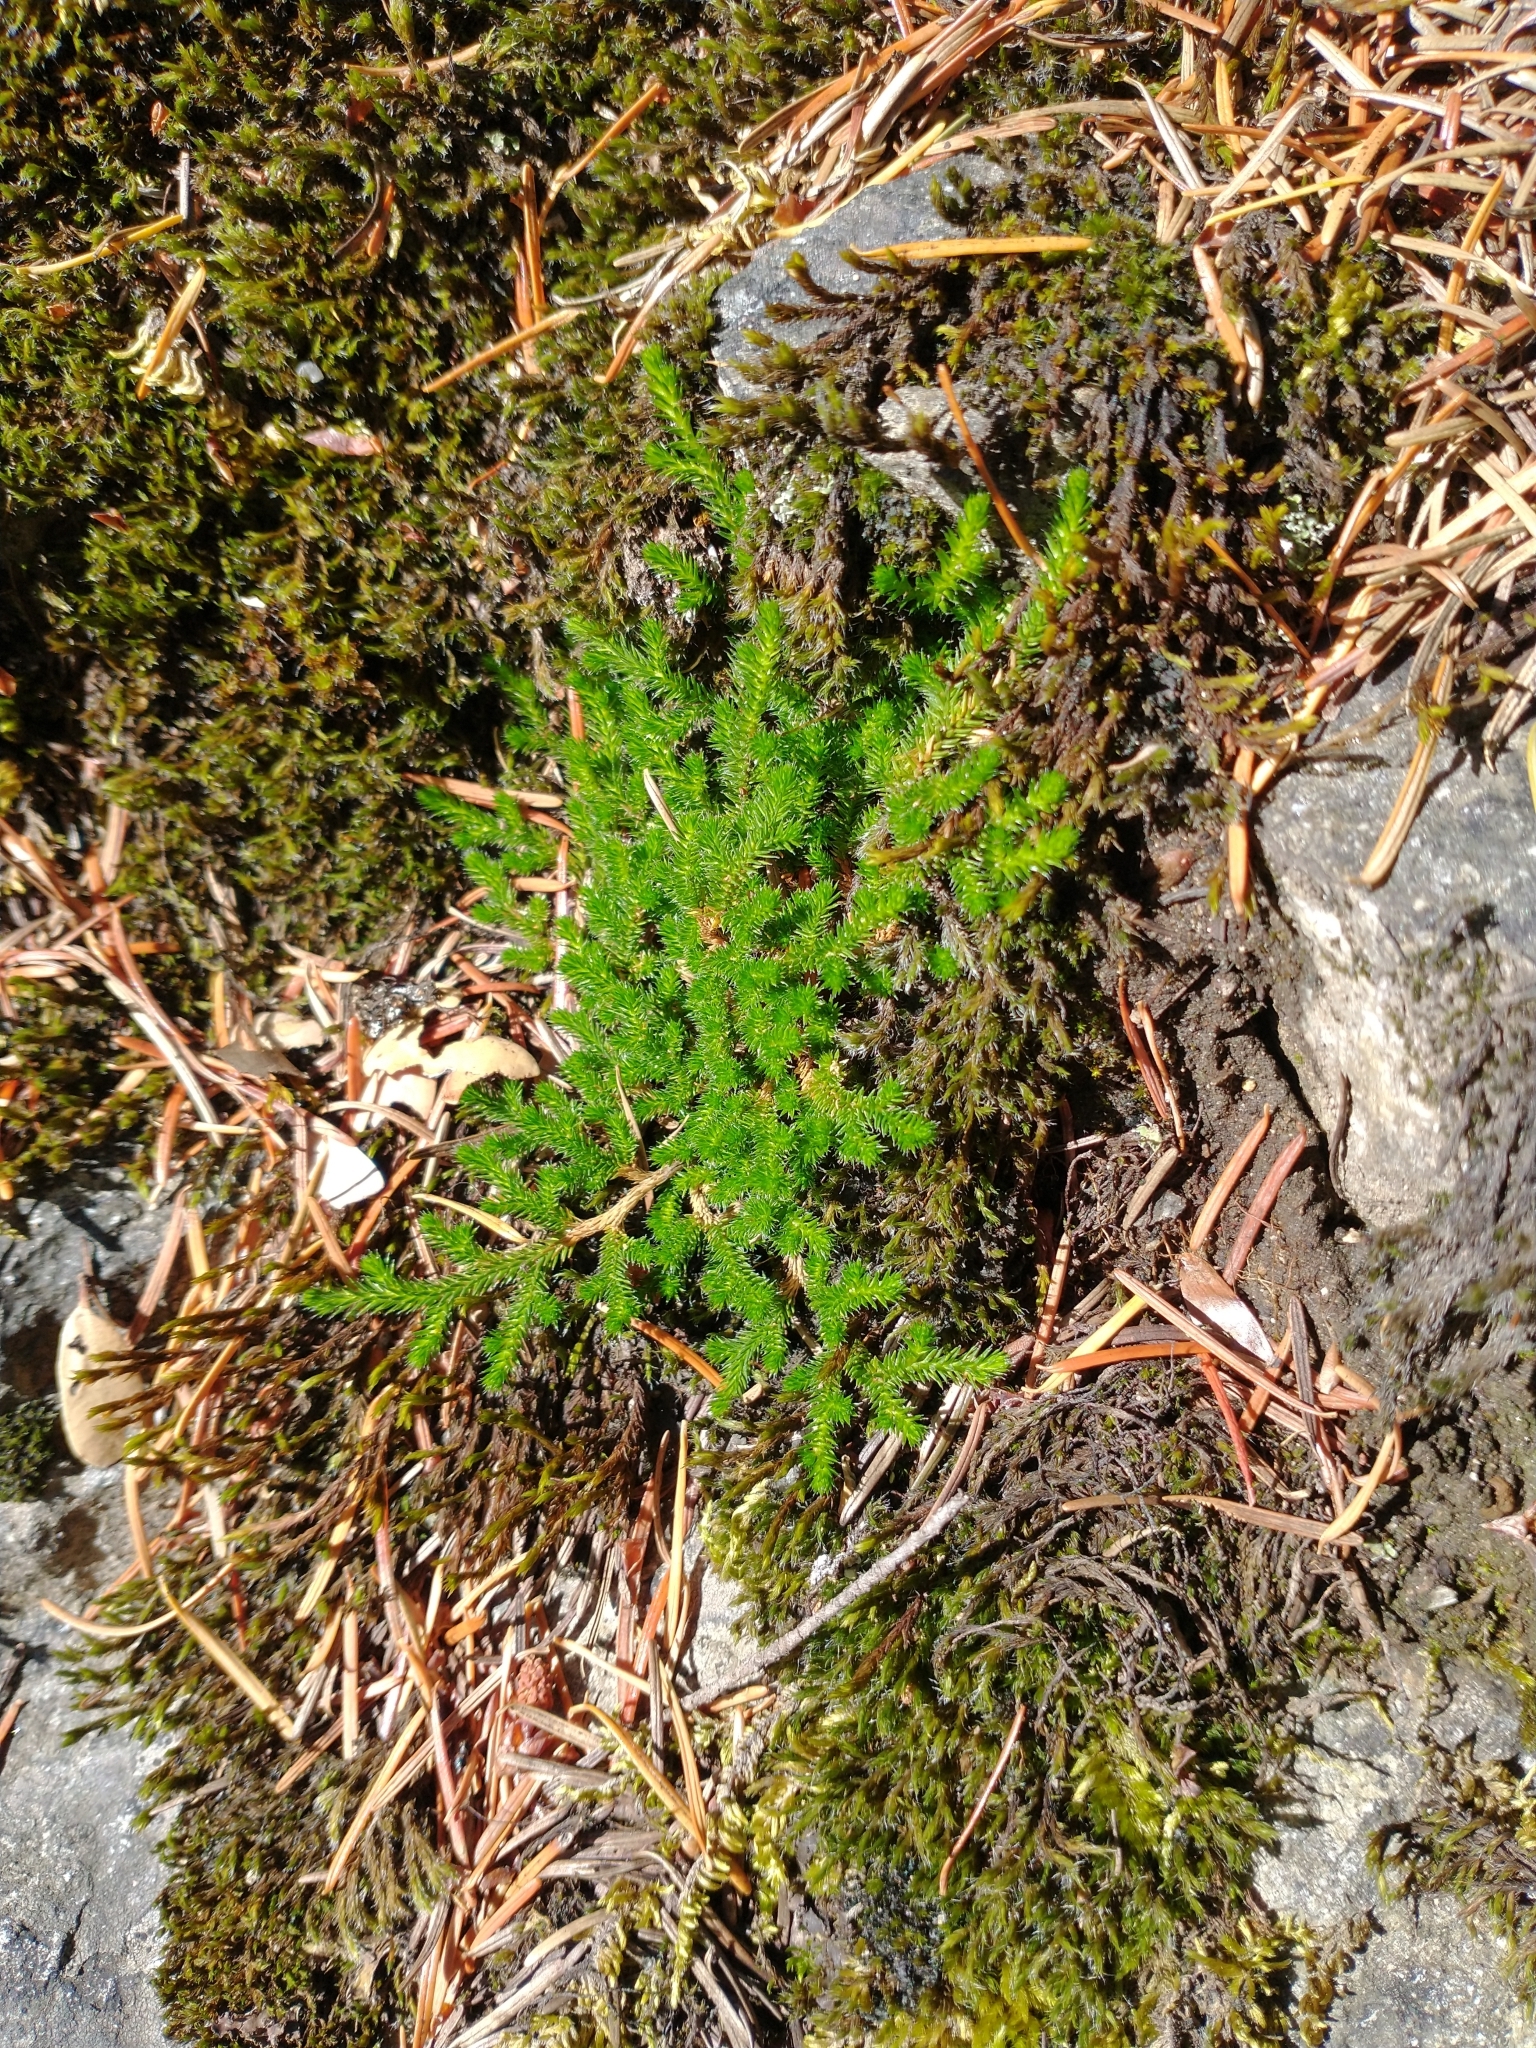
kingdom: Plantae
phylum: Tracheophyta
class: Lycopodiopsida
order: Selaginellales
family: Selaginellaceae
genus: Selaginella
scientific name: Selaginella wallacei
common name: Wallace's selaginella
